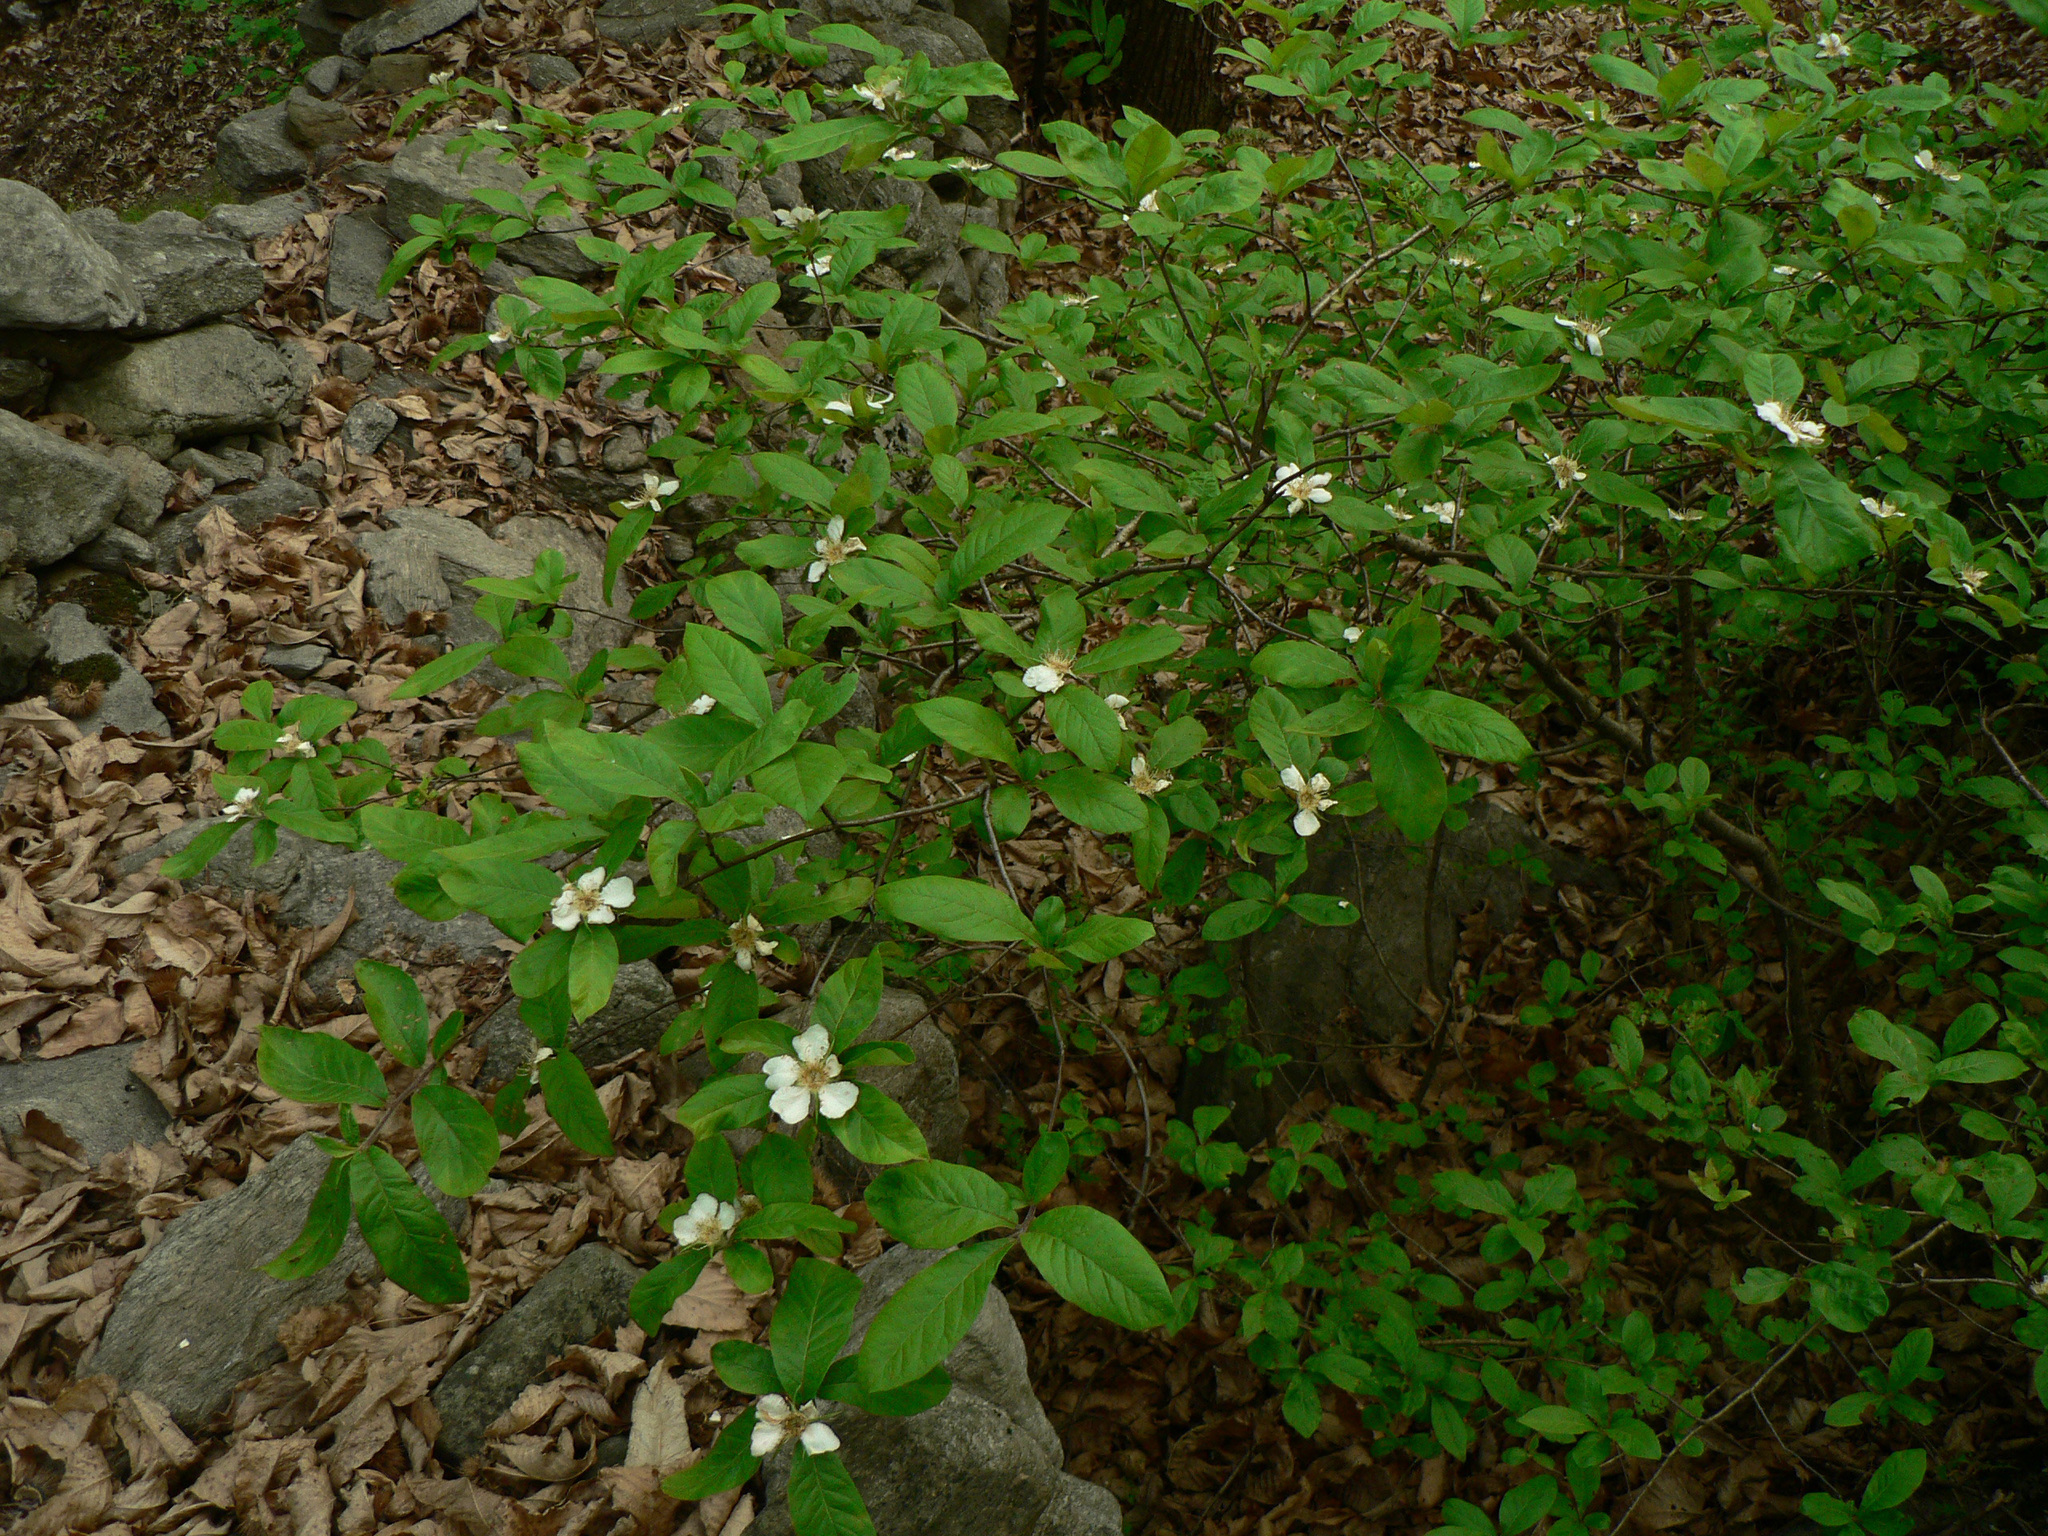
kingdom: Plantae
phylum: Tracheophyta
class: Magnoliopsida
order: Rosales
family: Rosaceae
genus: Mespilus
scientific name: Mespilus germanica
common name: Medlar
